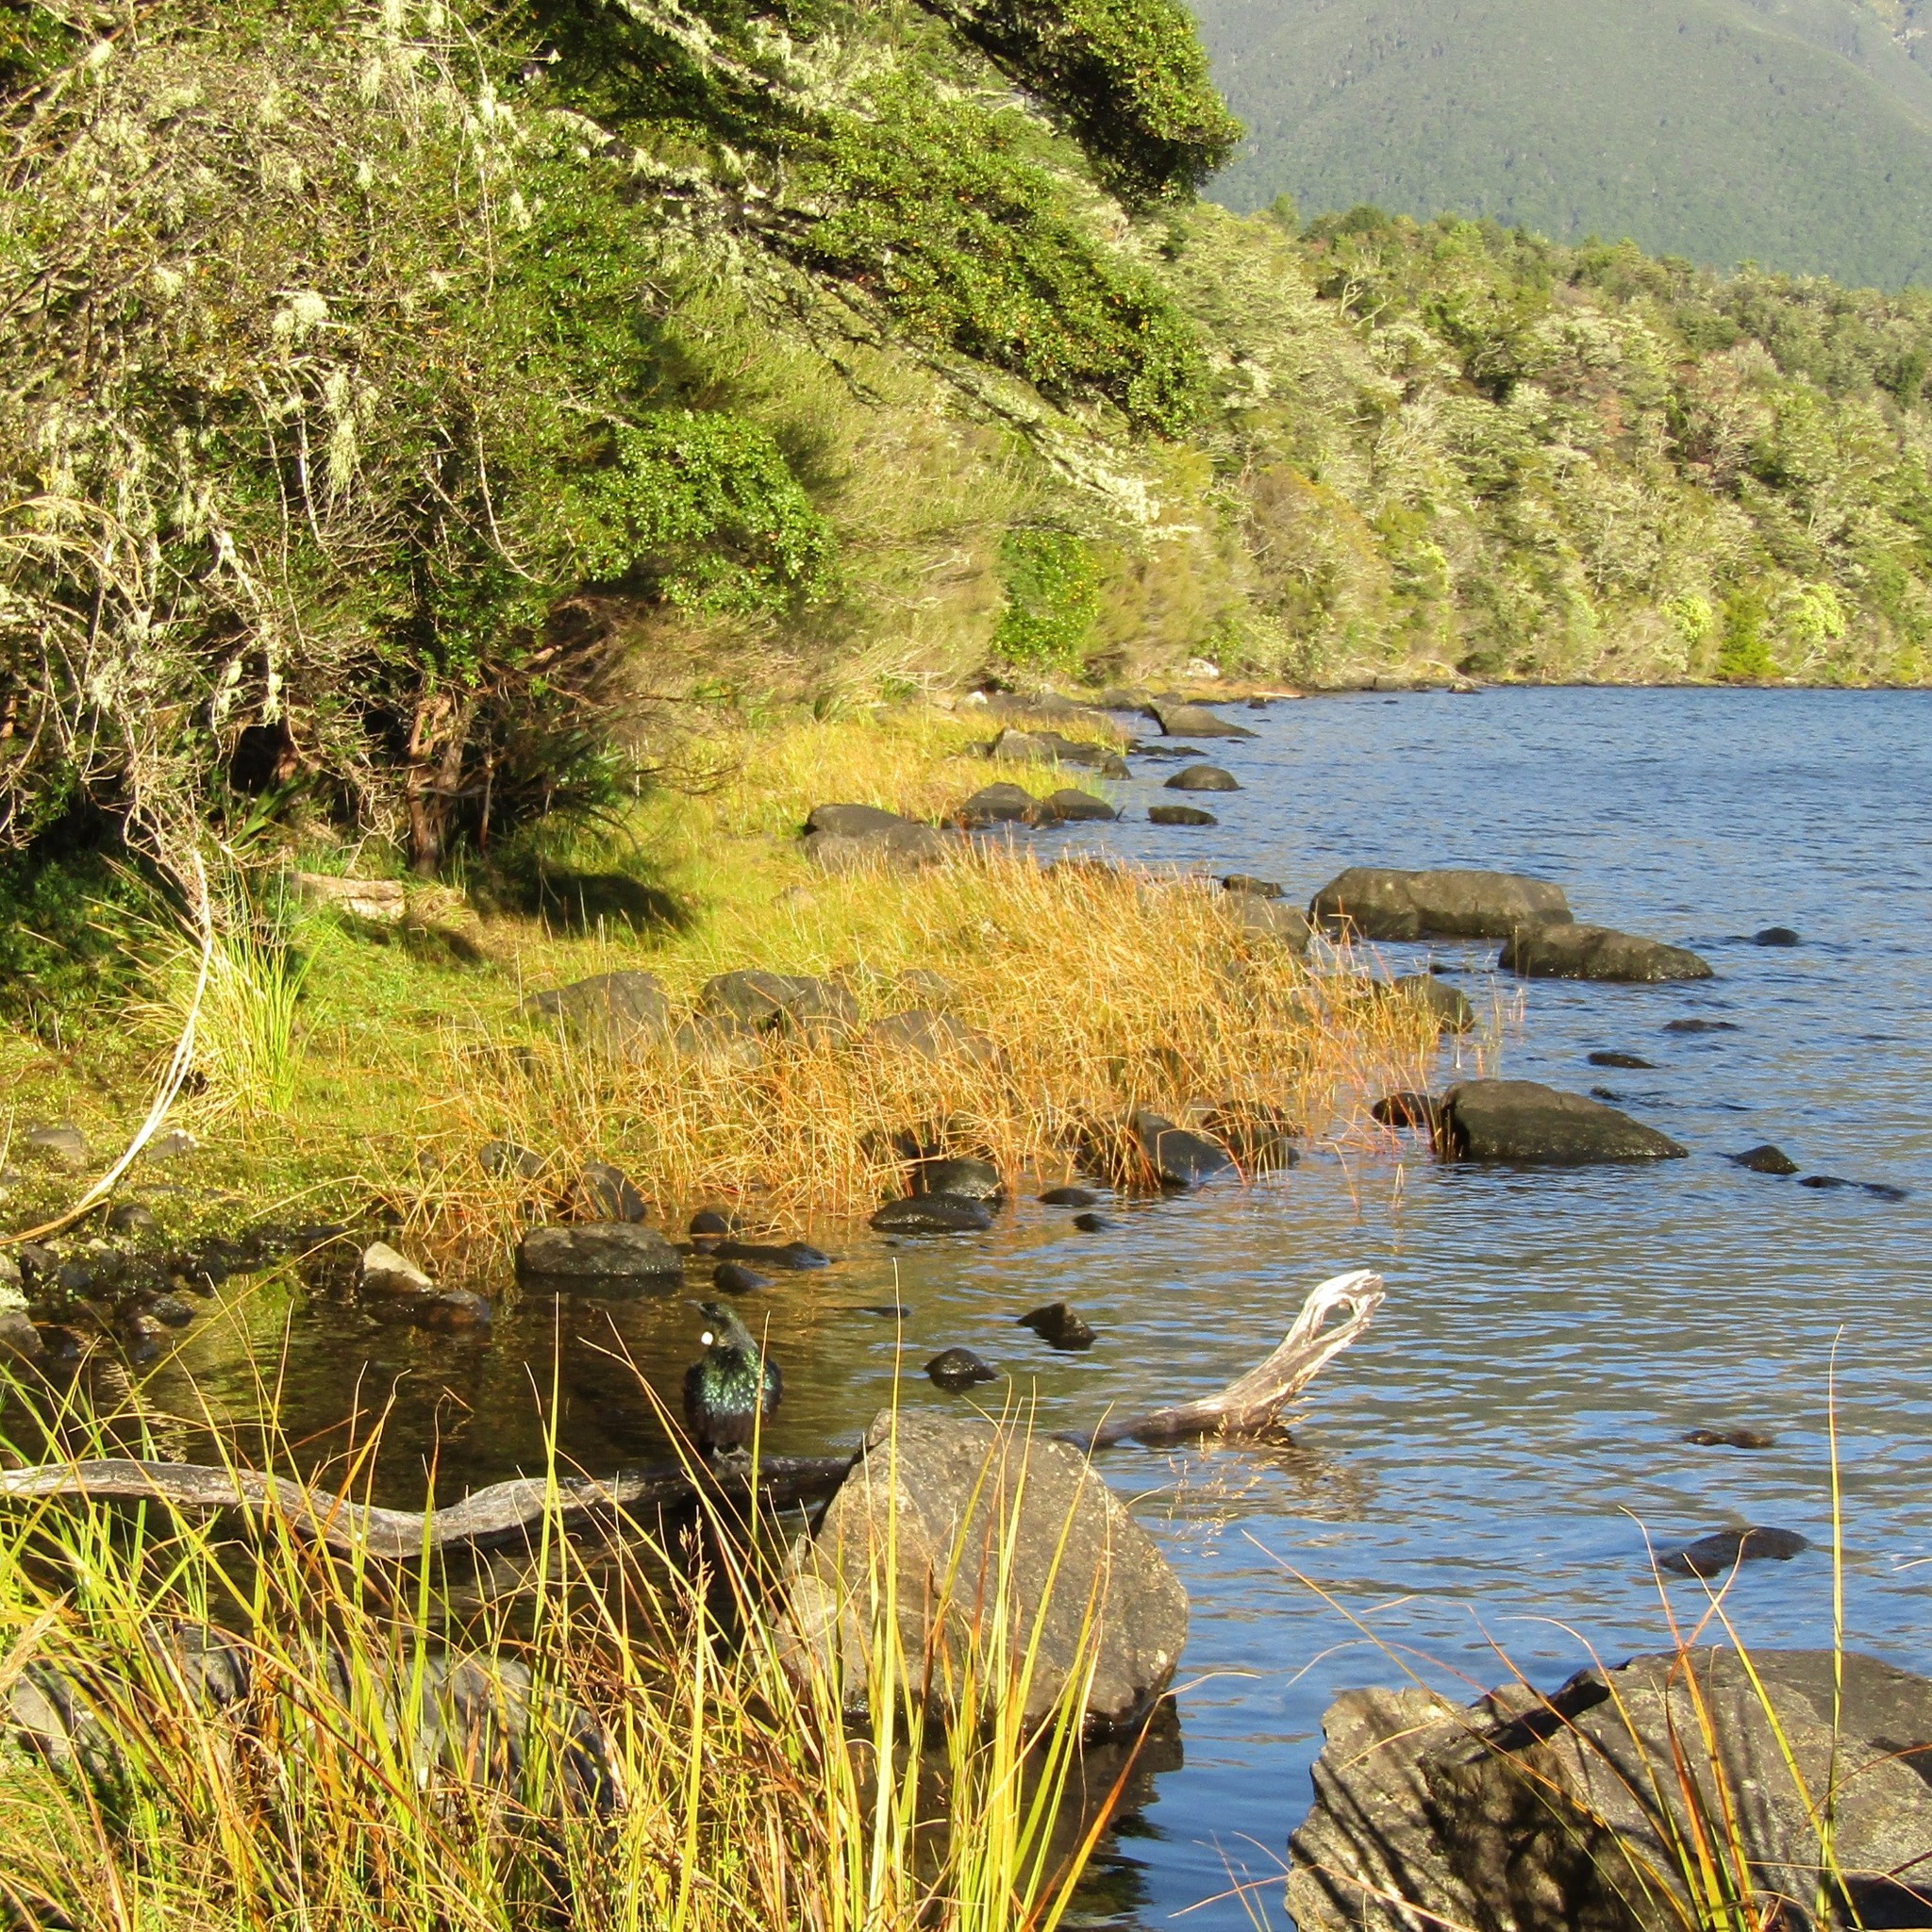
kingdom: Animalia
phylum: Chordata
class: Aves
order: Passeriformes
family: Meliphagidae
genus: Prosthemadera
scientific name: Prosthemadera novaeseelandiae
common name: Tui
